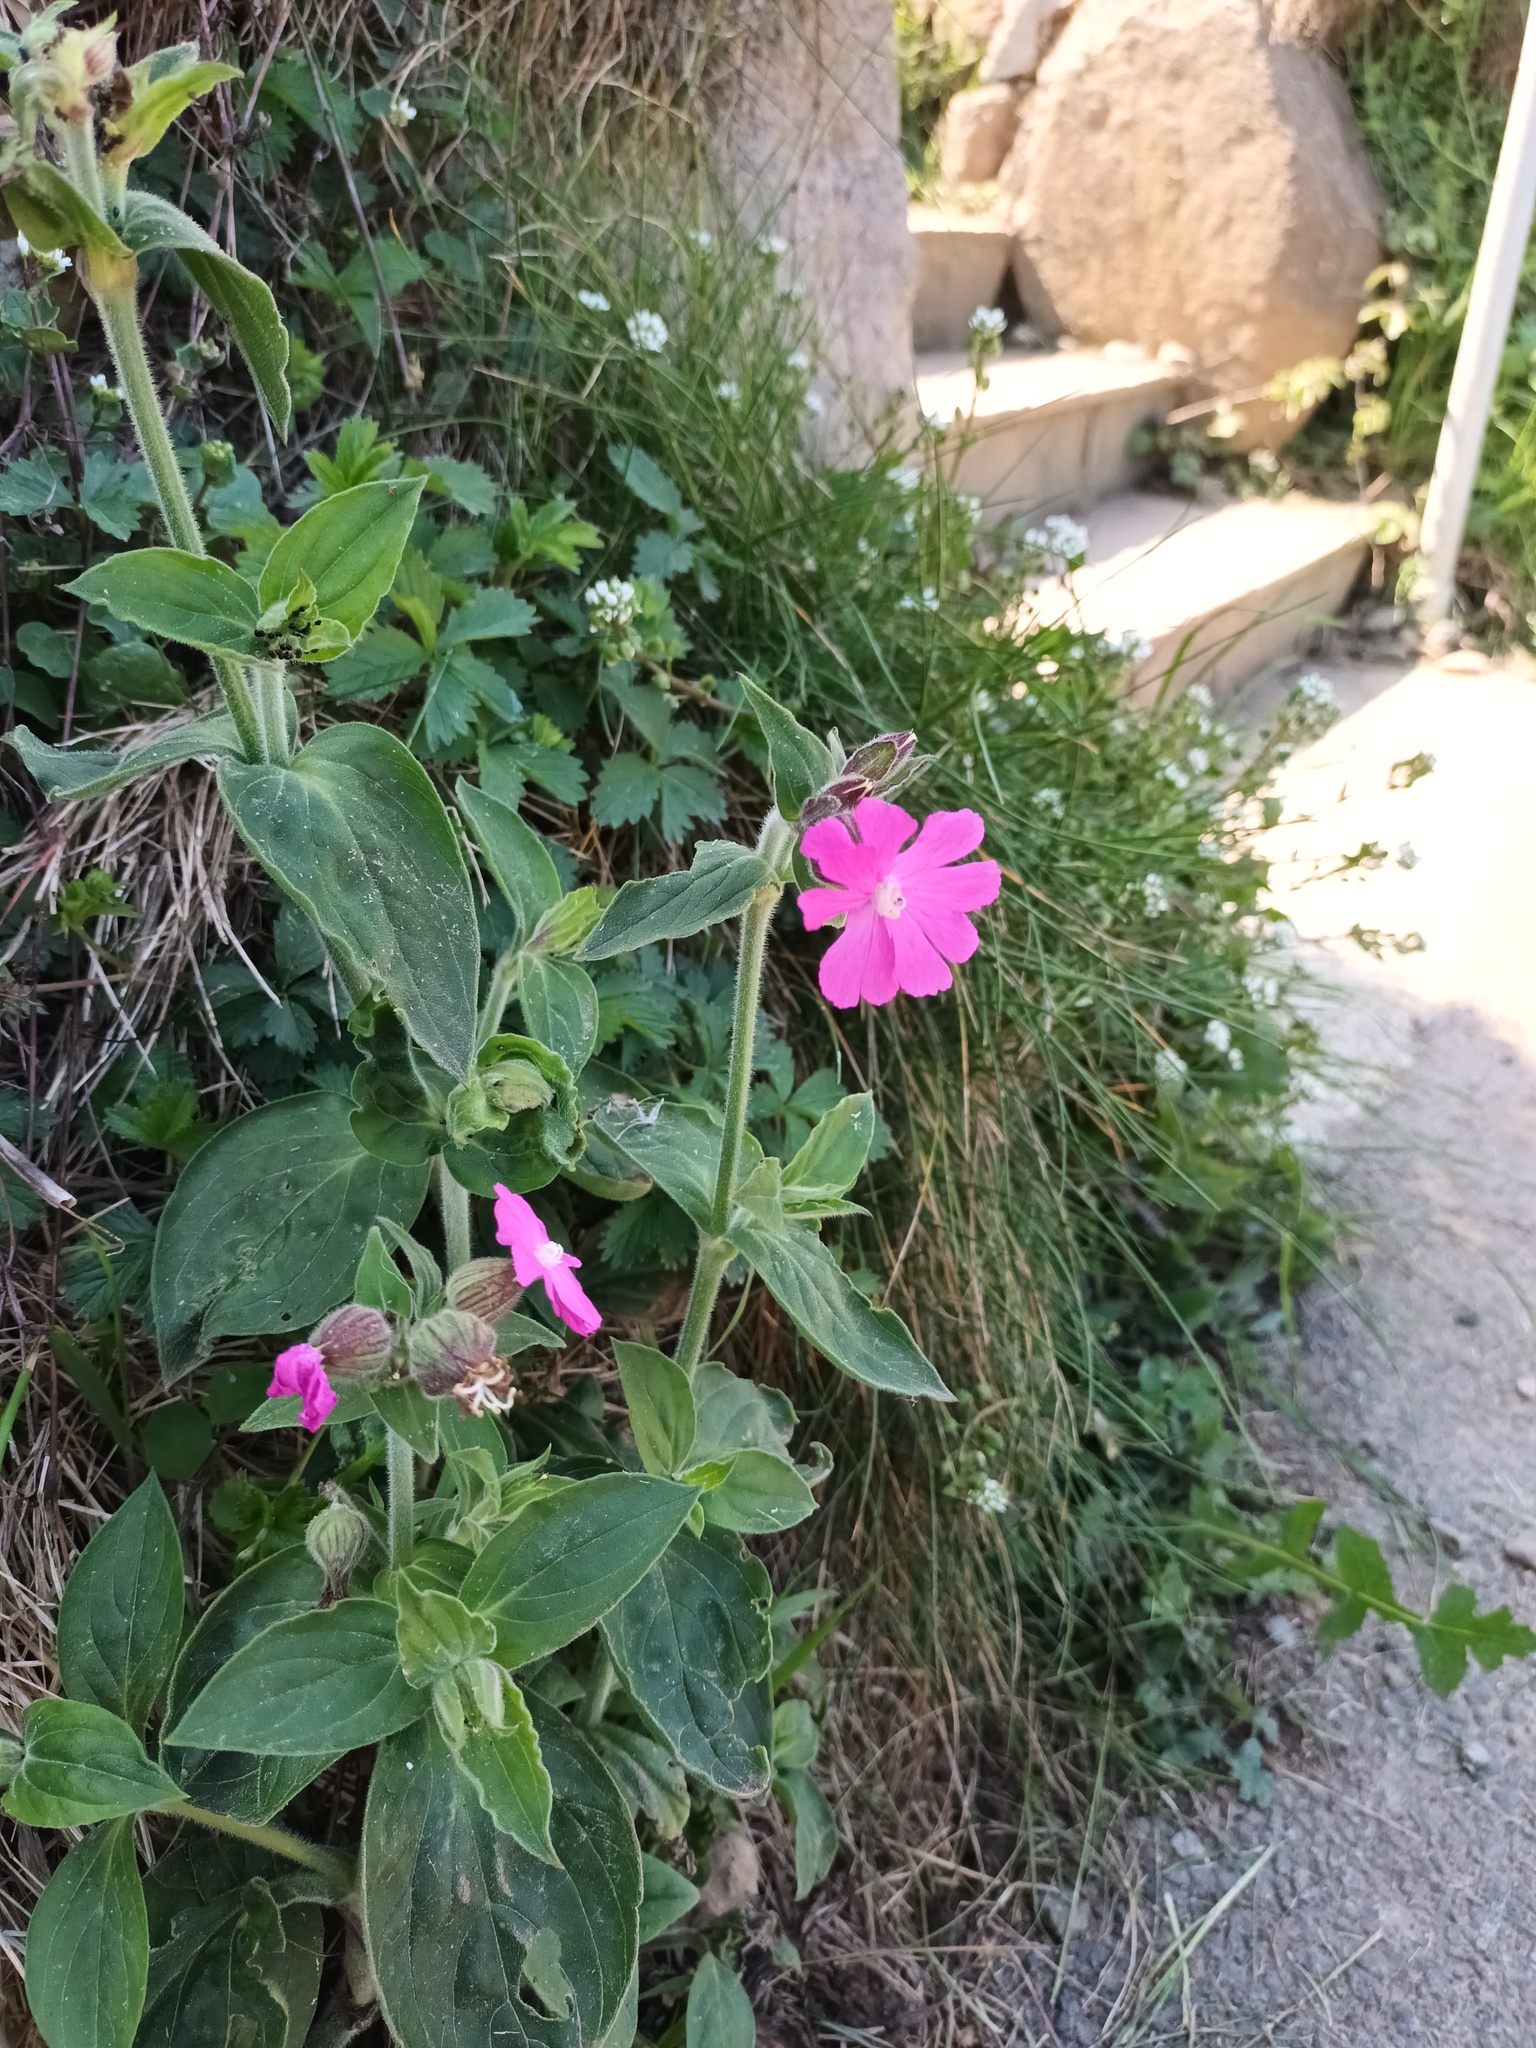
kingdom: Plantae
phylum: Tracheophyta
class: Magnoliopsida
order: Caryophyllales
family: Caryophyllaceae
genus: Silene
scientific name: Silene dioica
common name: Red campion
